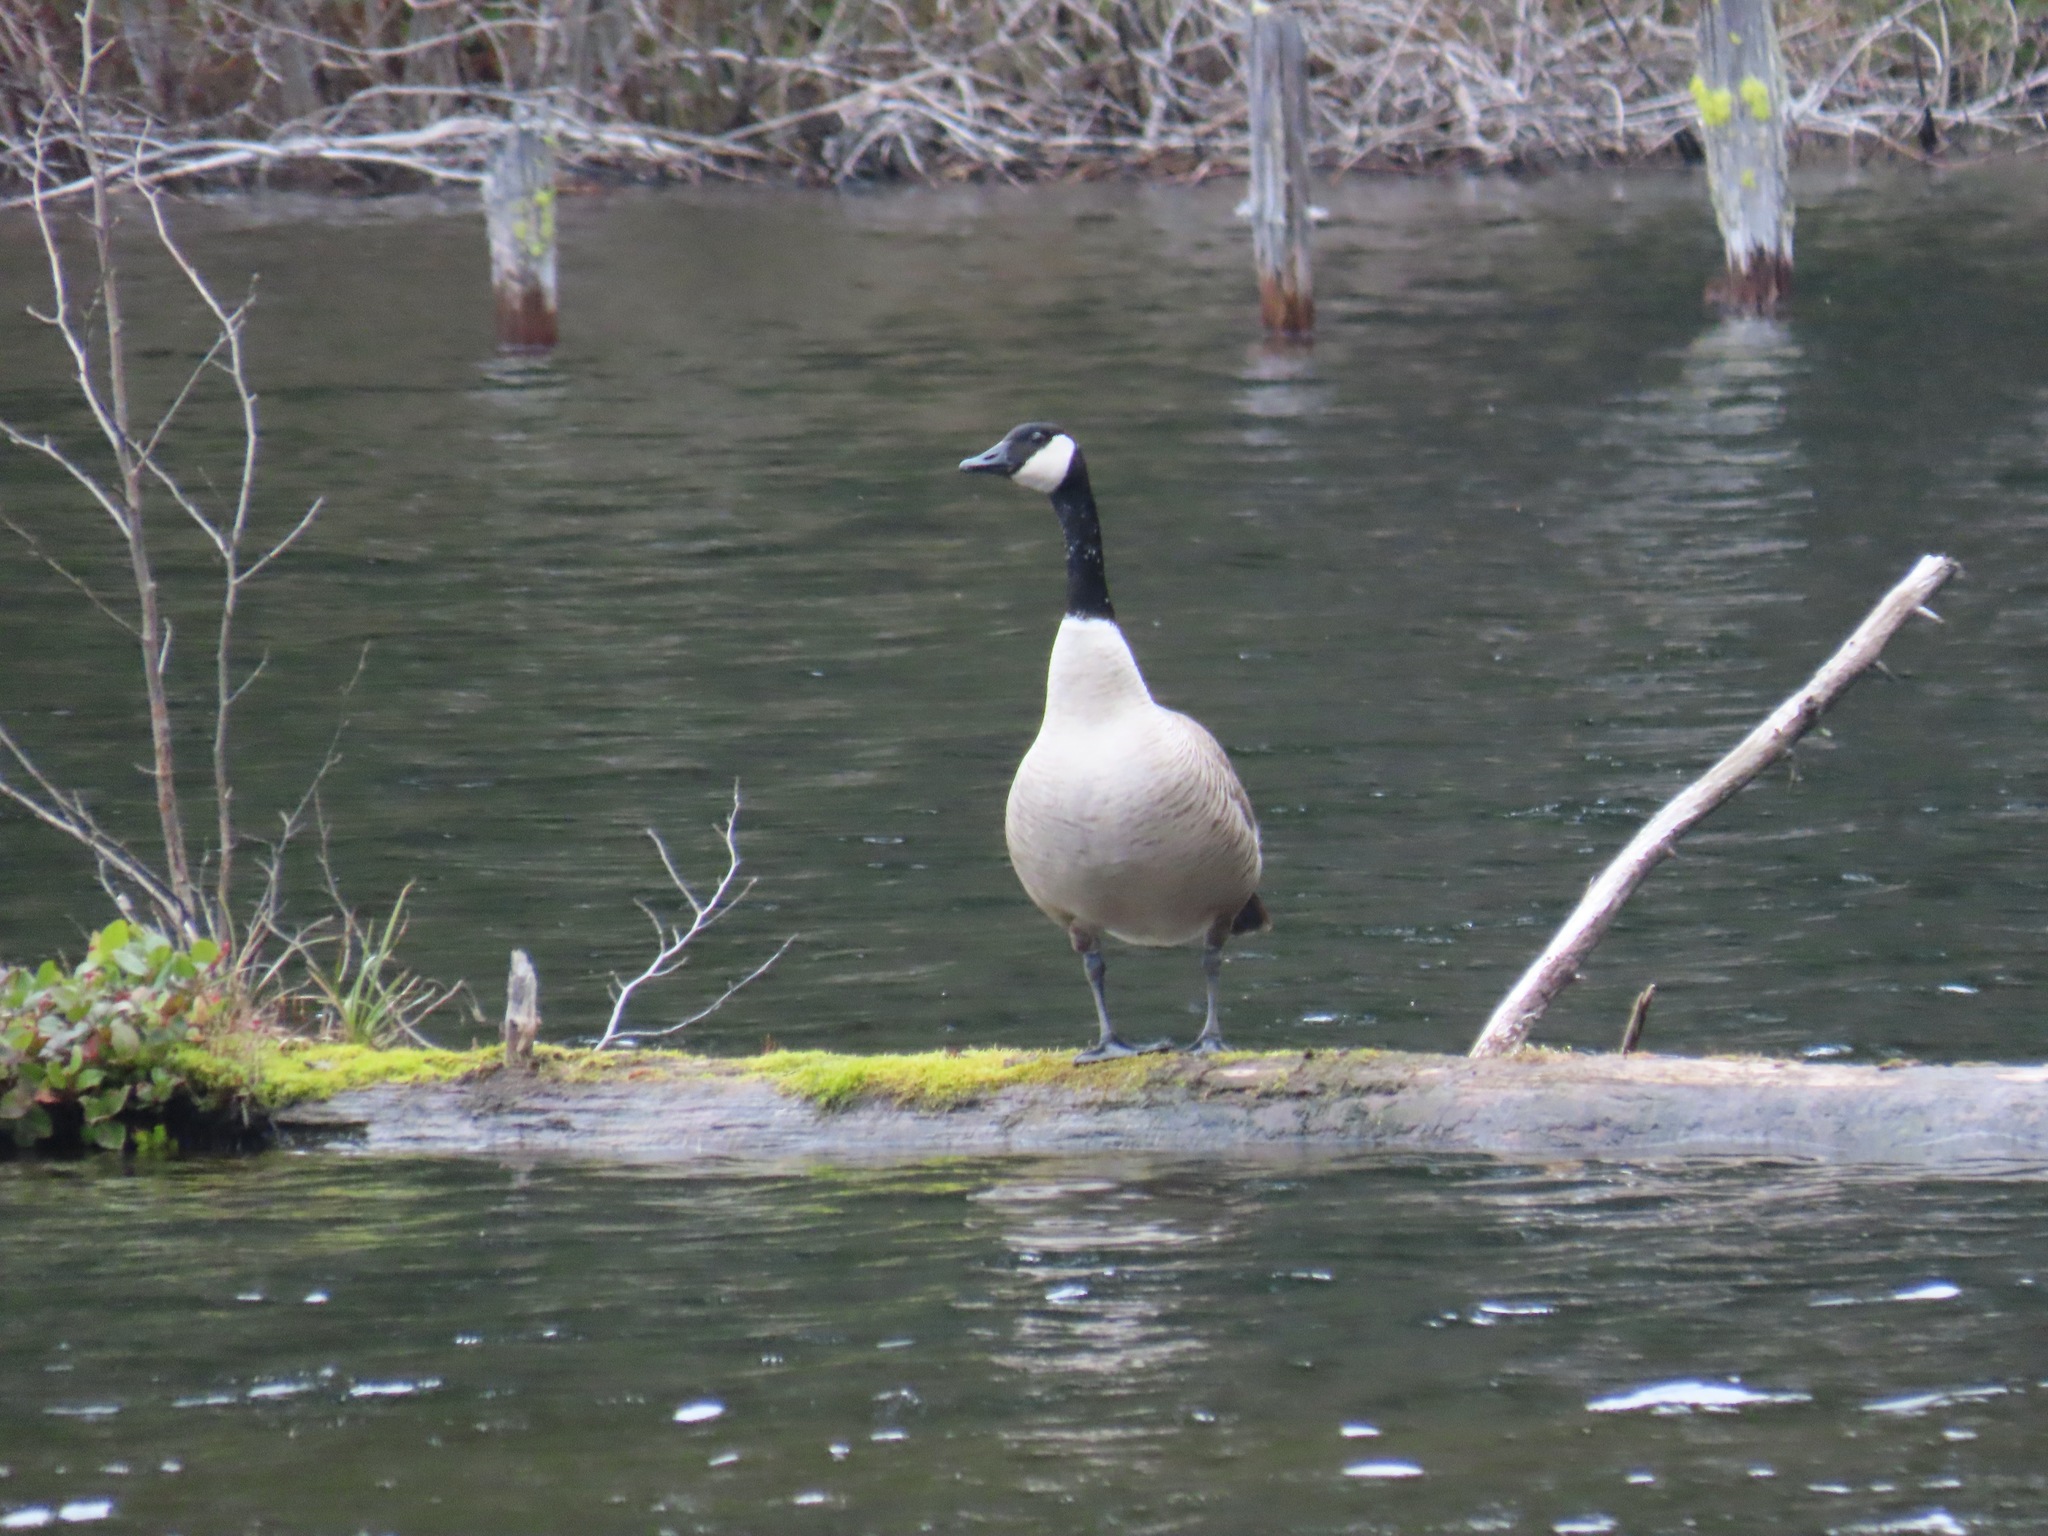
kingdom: Animalia
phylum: Chordata
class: Aves
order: Anseriformes
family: Anatidae
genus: Branta
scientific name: Branta canadensis
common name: Canada goose
